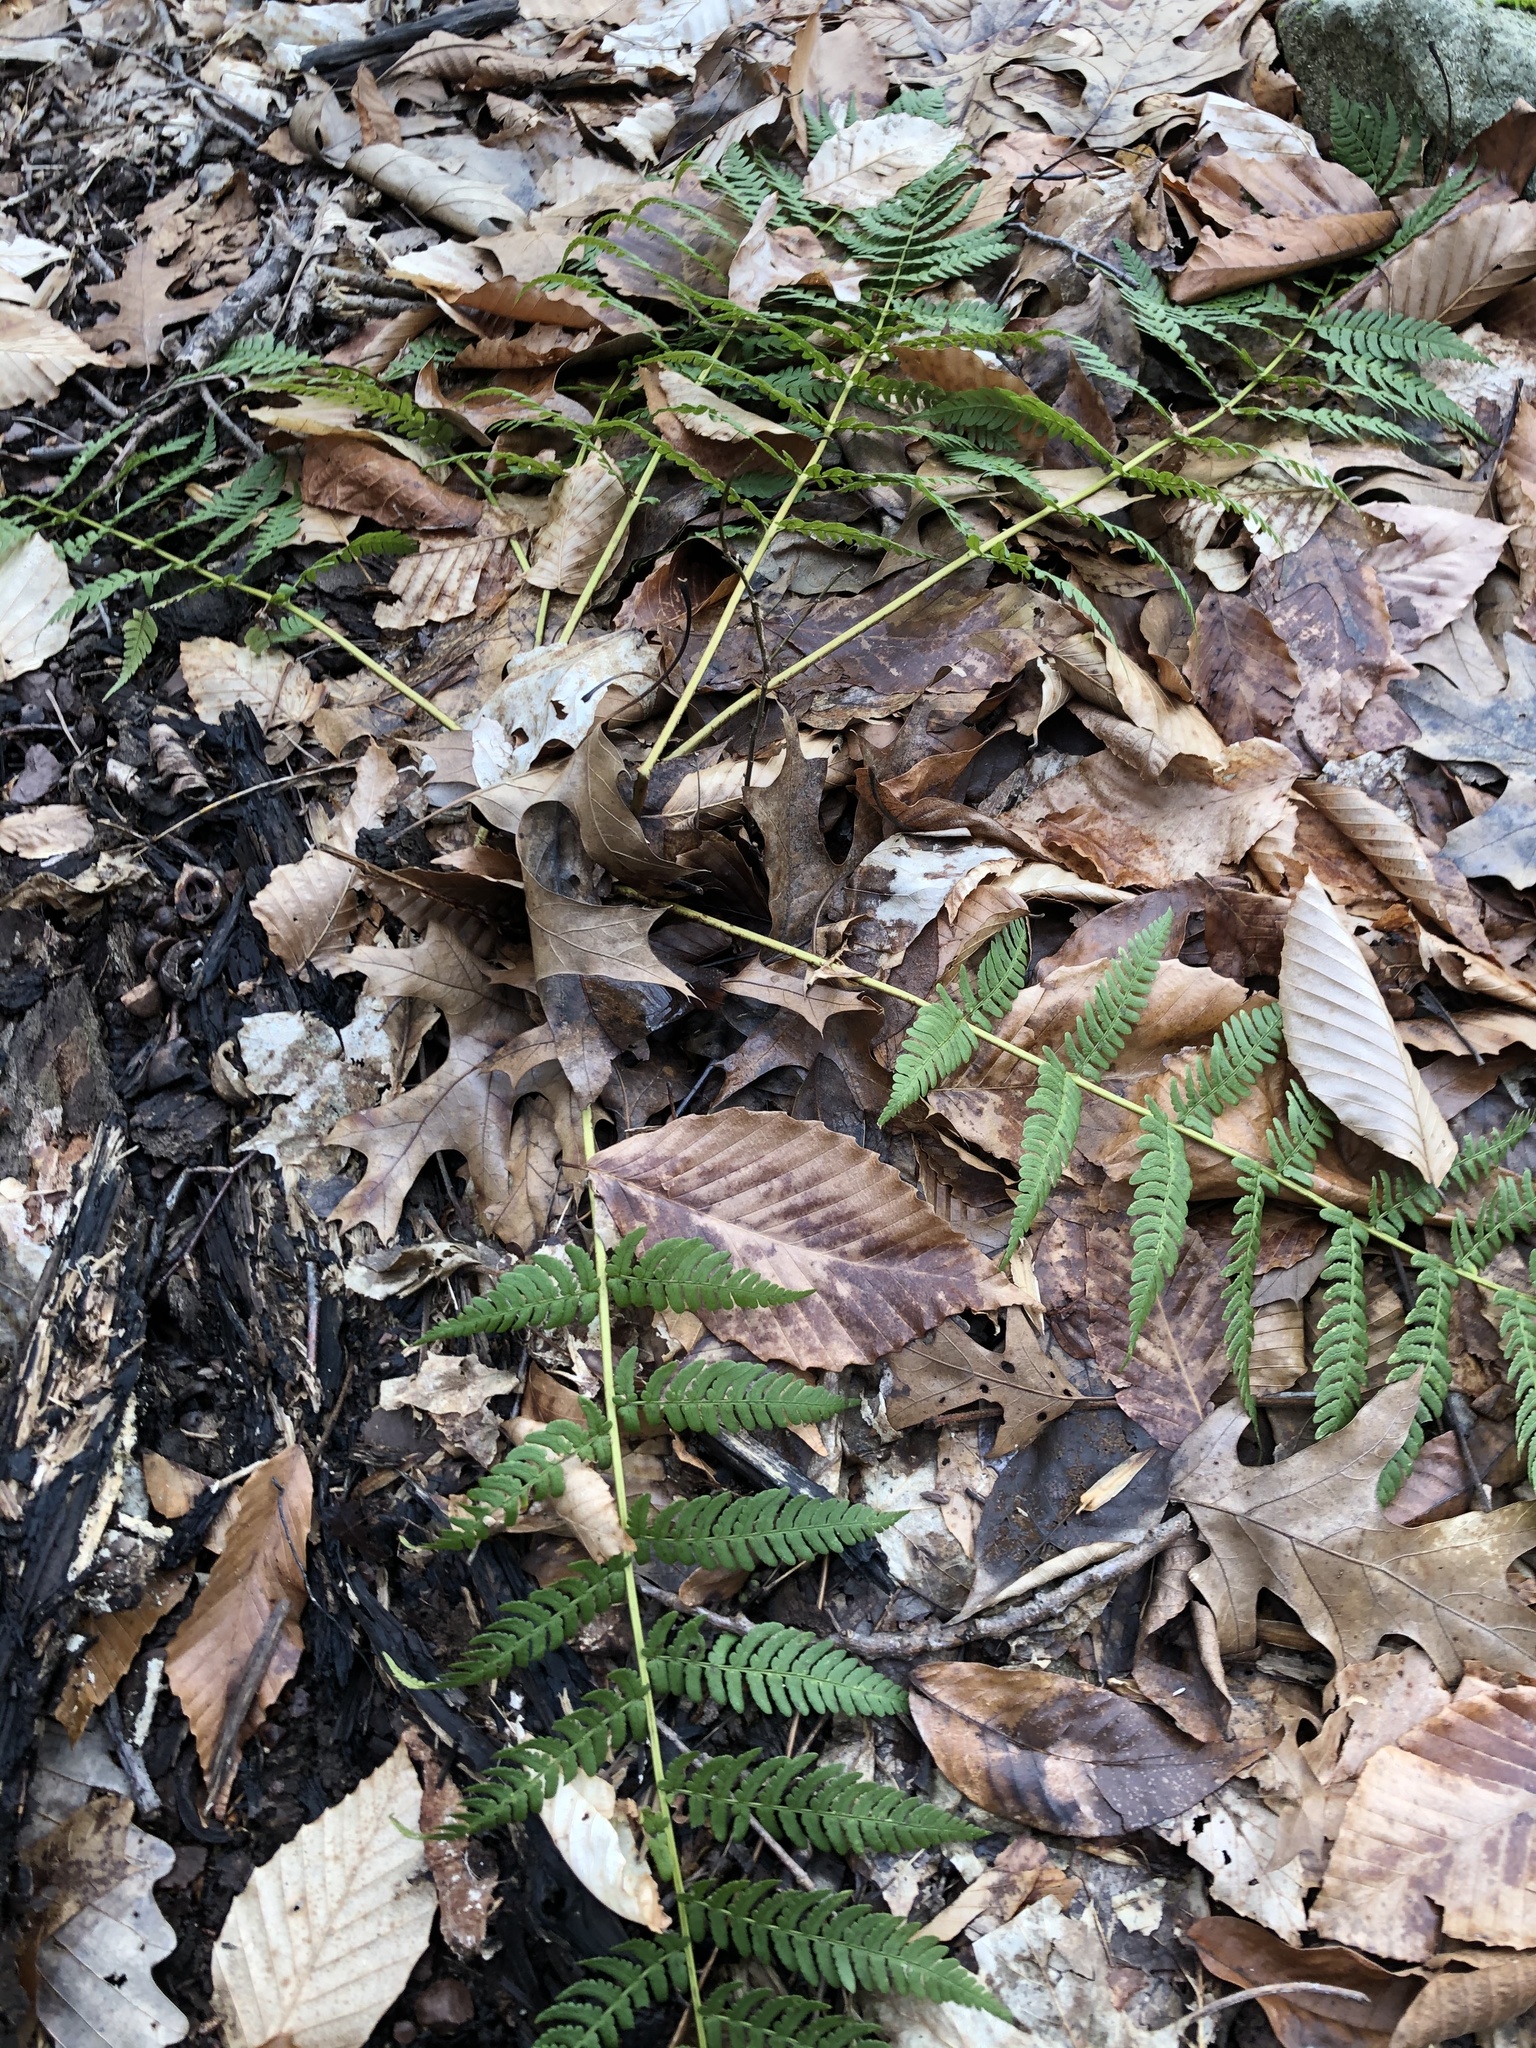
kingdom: Plantae
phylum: Tracheophyta
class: Polypodiopsida
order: Polypodiales
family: Dryopteridaceae
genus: Dryopteris
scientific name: Dryopteris marginalis
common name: Marginal wood fern
